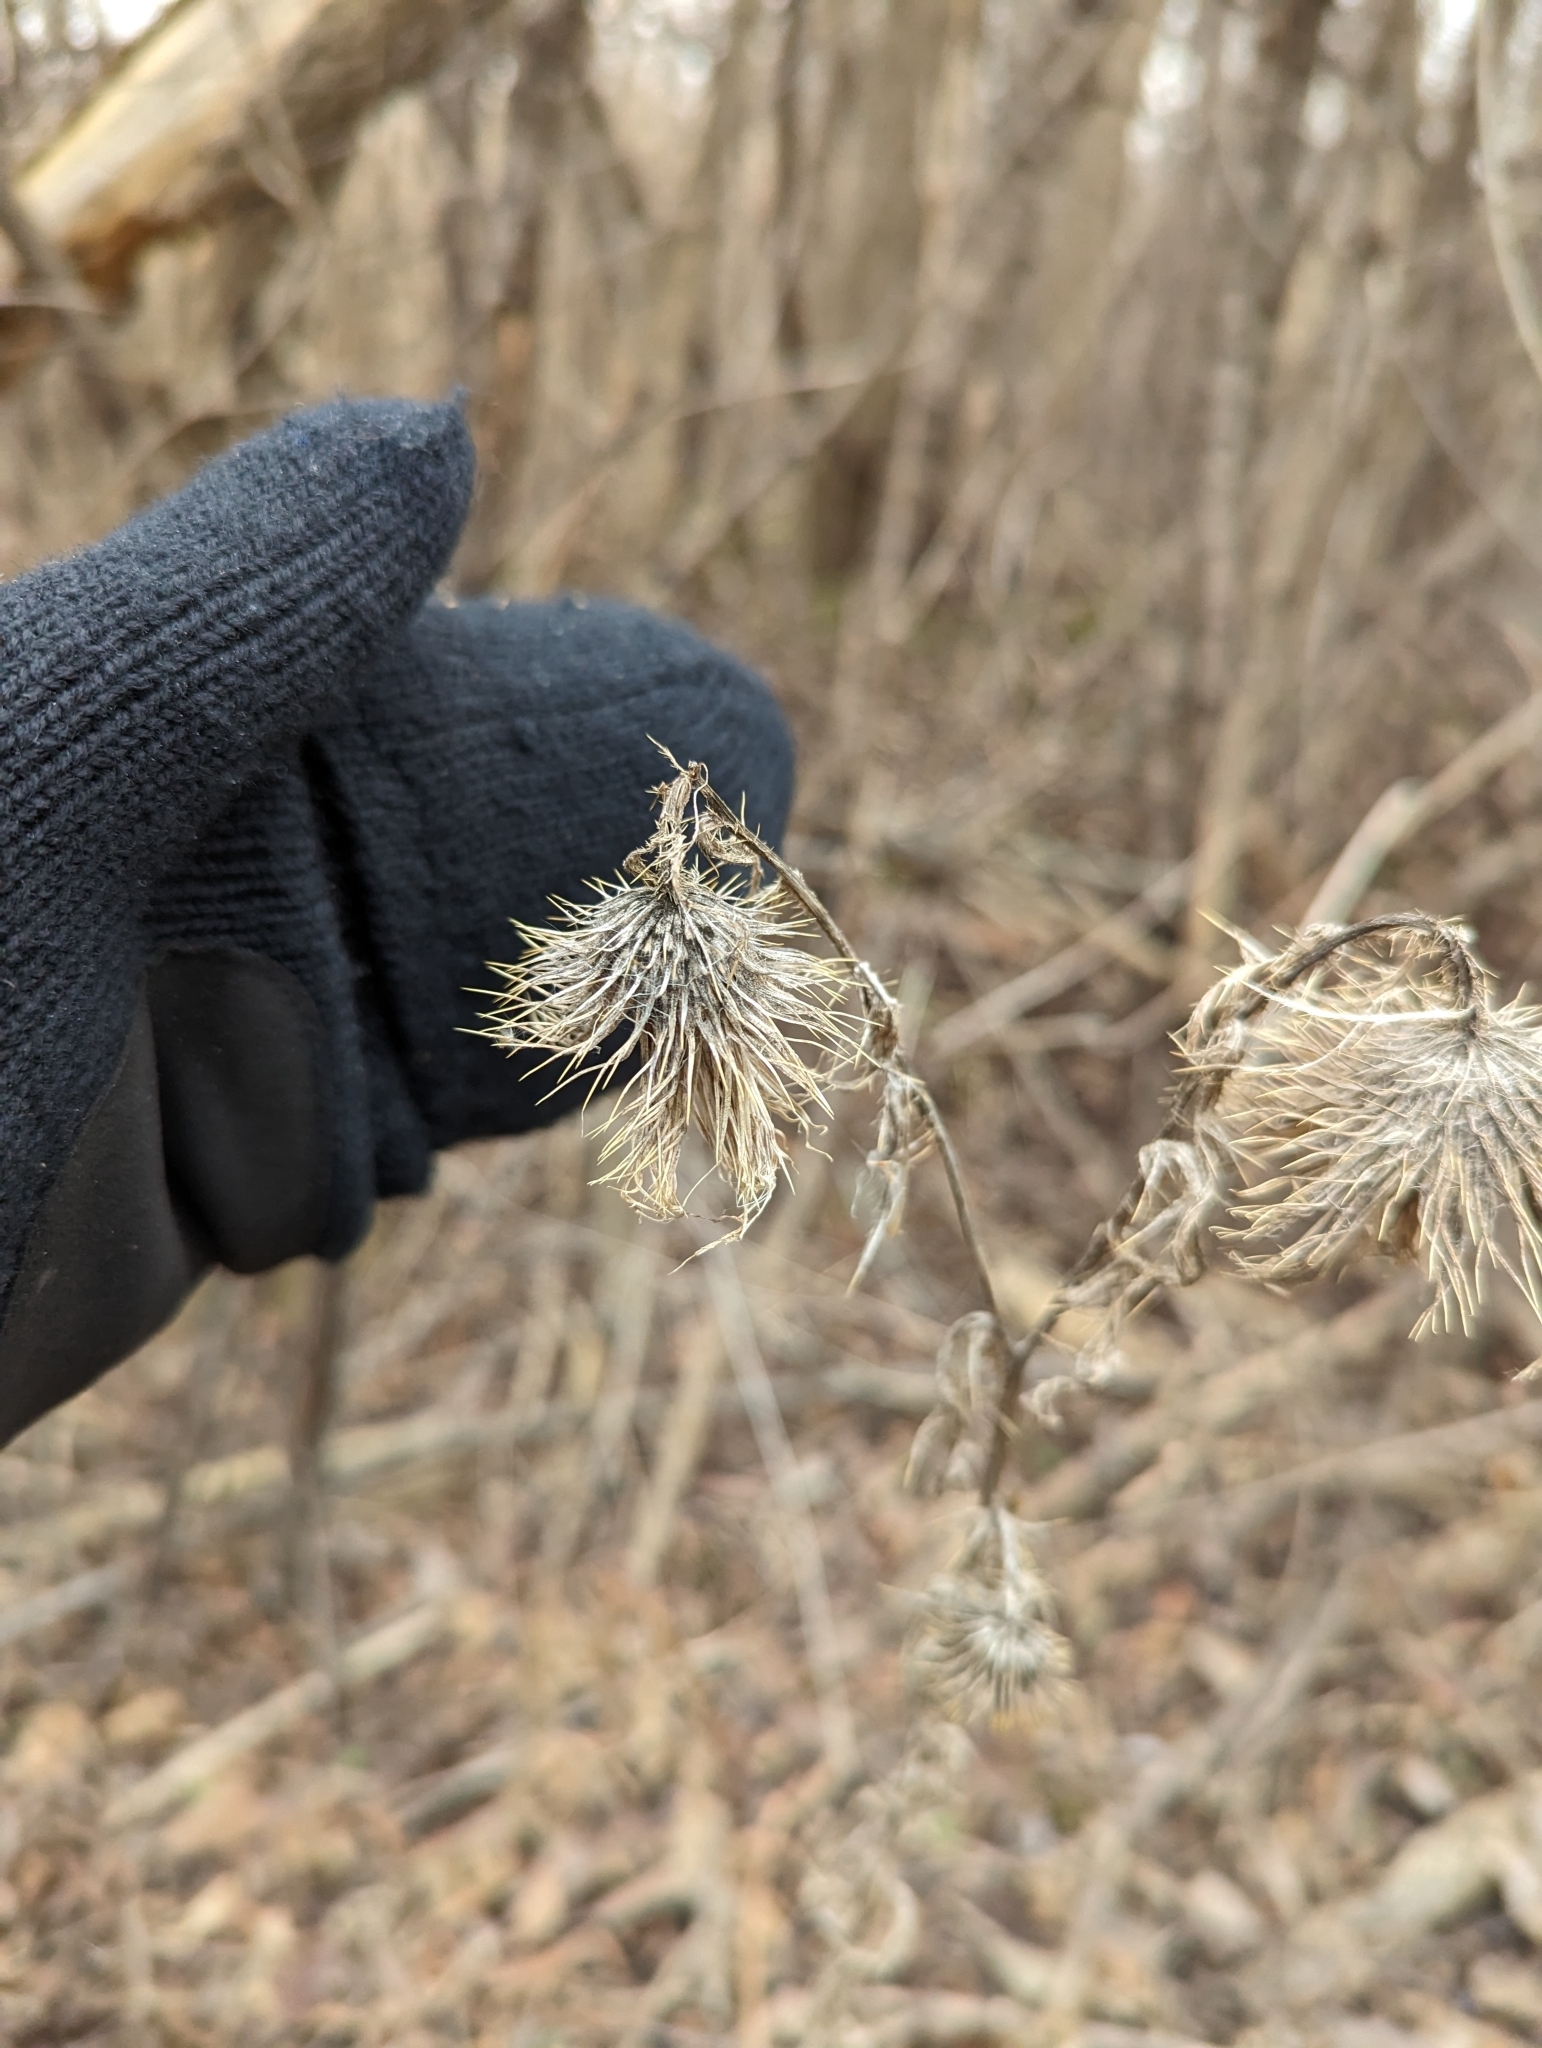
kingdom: Plantae
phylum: Tracheophyta
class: Magnoliopsida
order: Asterales
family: Asteraceae
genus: Cirsium
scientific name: Cirsium vulgare
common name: Bull thistle
